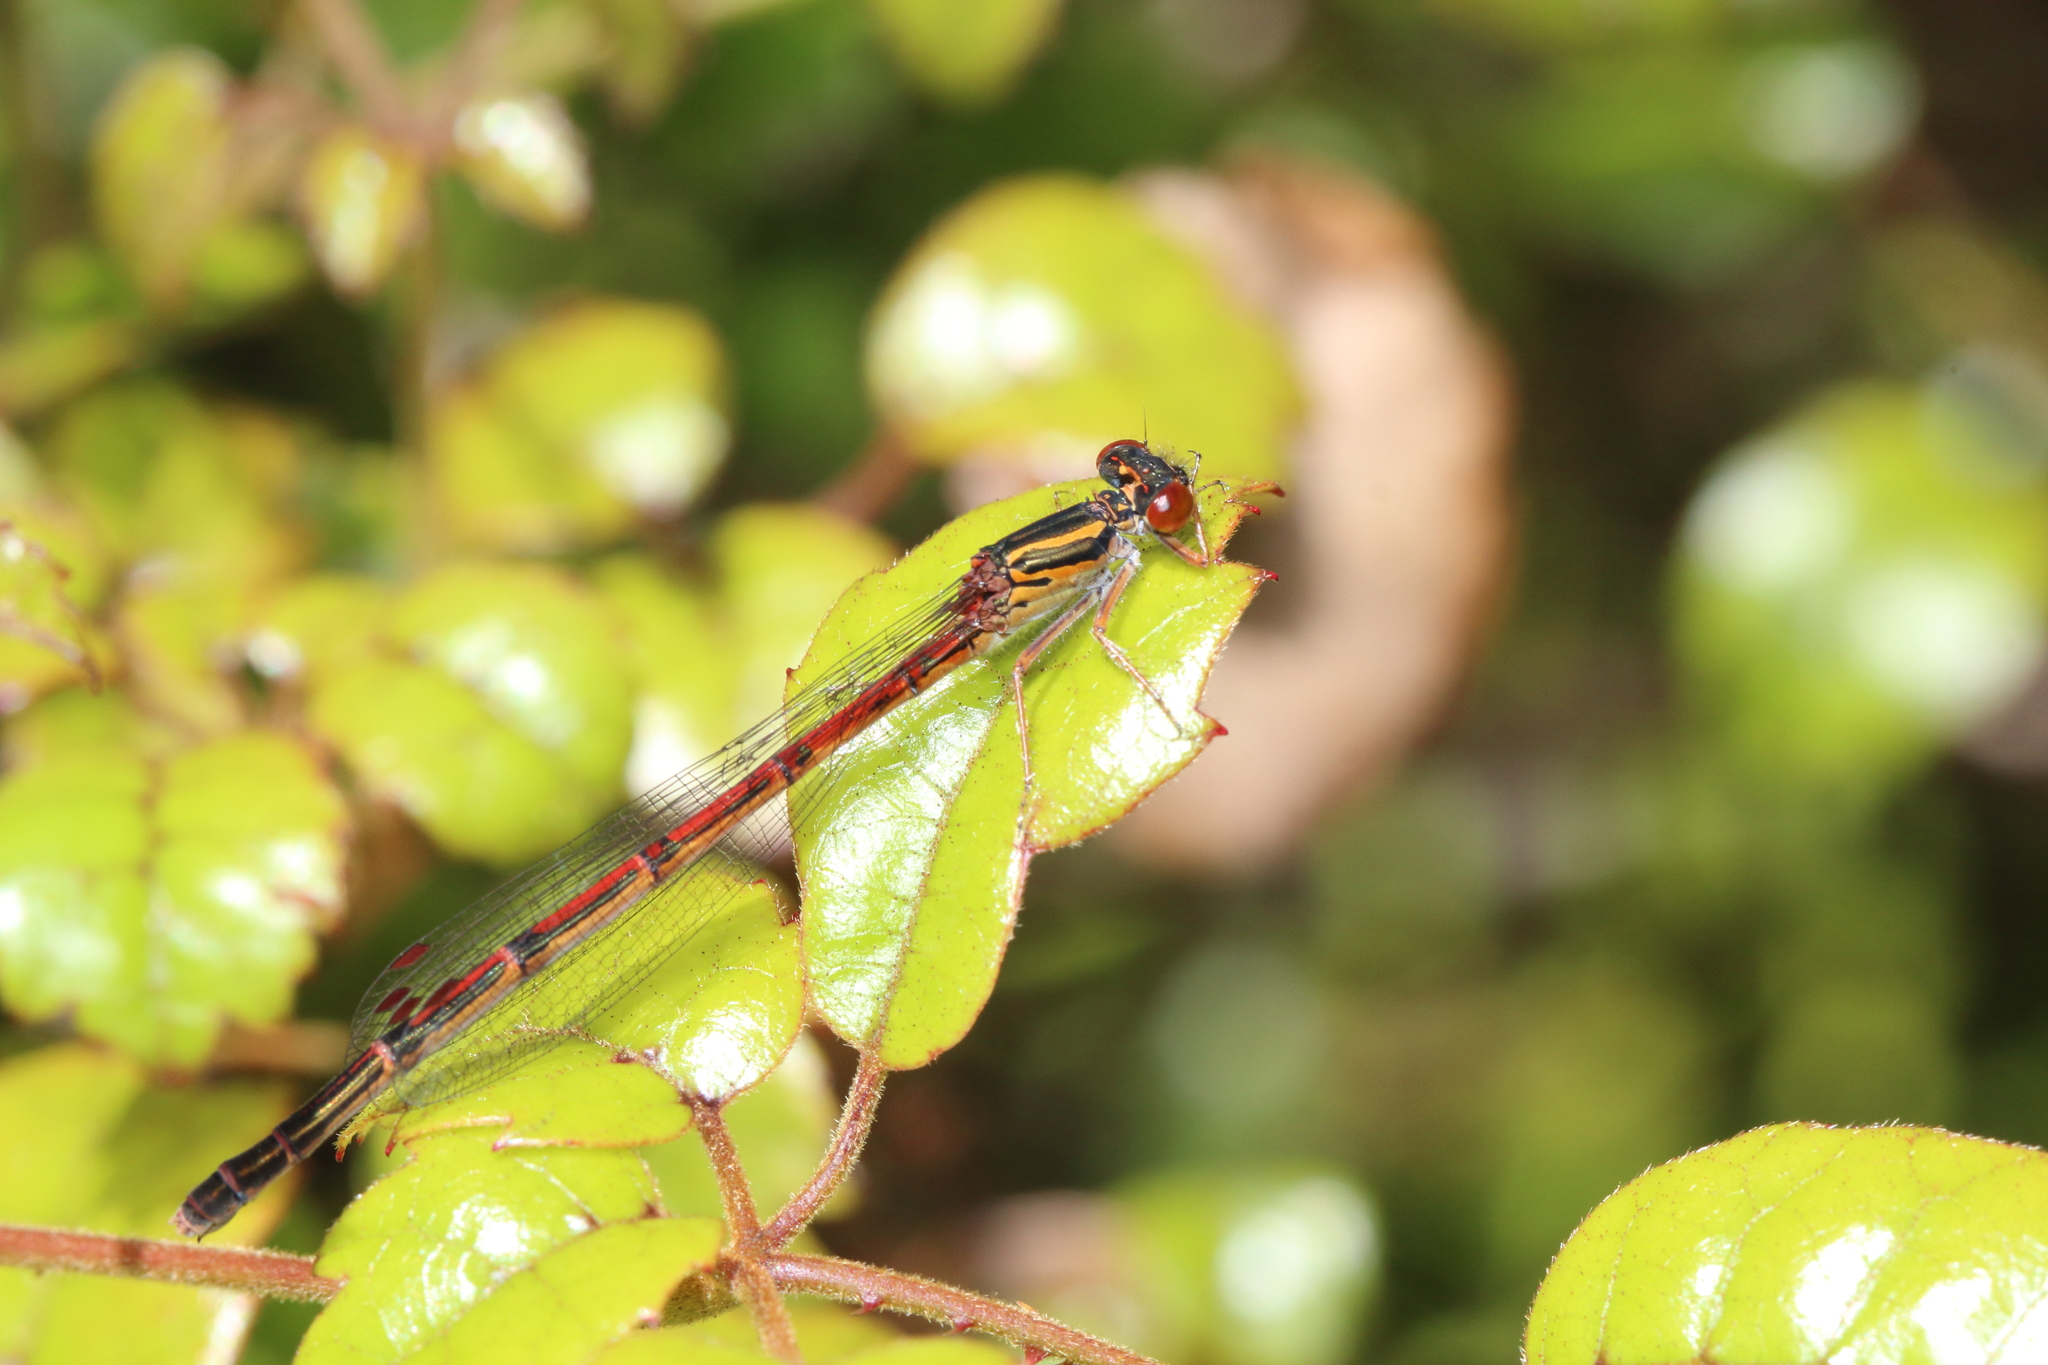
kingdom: Animalia
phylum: Arthropoda
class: Insecta
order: Odonata
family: Coenagrionidae
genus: Xanthocnemis
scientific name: Xanthocnemis zealandica
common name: Common redcoat damselfly
